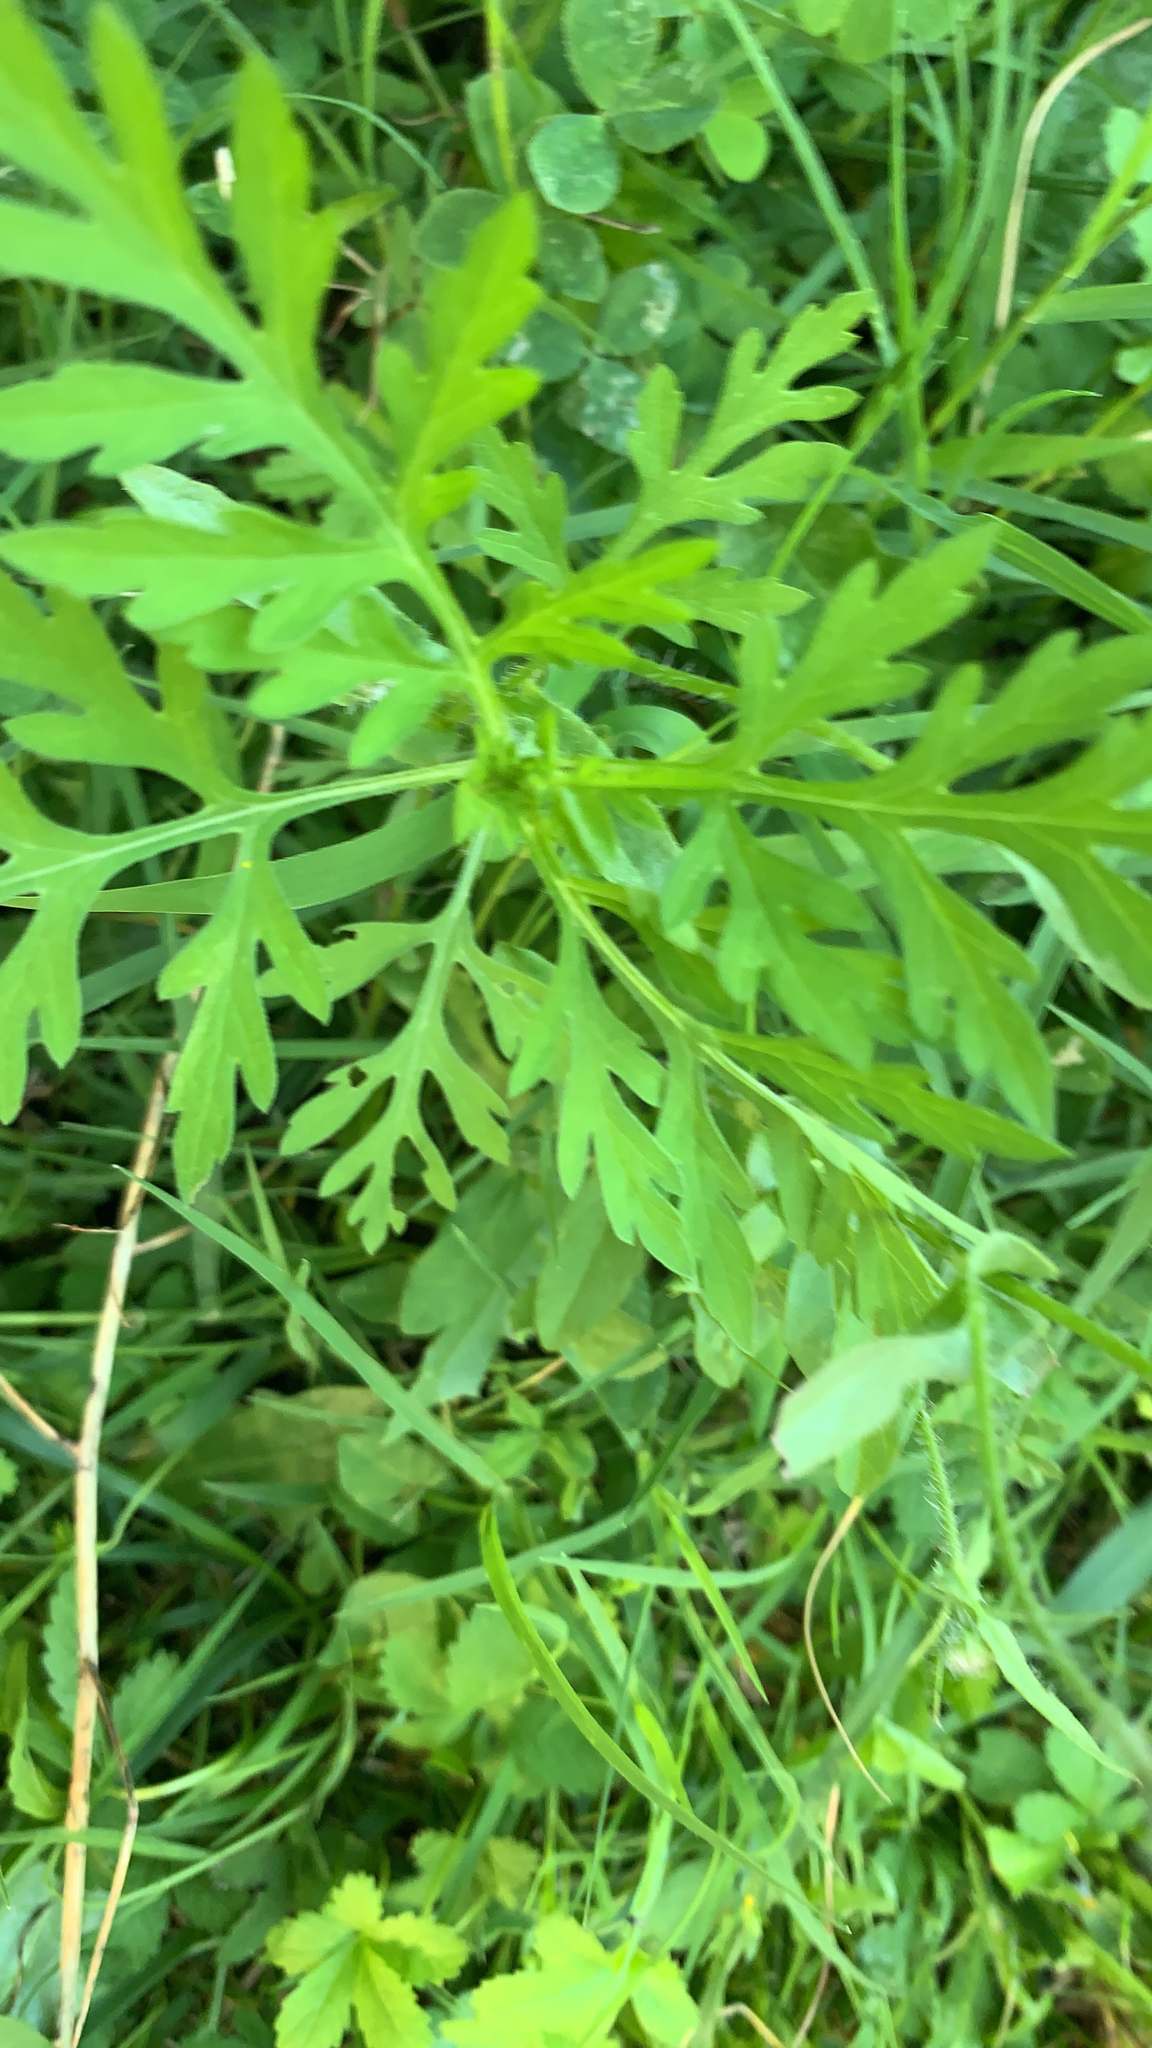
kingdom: Plantae
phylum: Tracheophyta
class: Magnoliopsida
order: Asterales
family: Asteraceae
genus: Ambrosia
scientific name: Ambrosia artemisiifolia
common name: Annual ragweed
